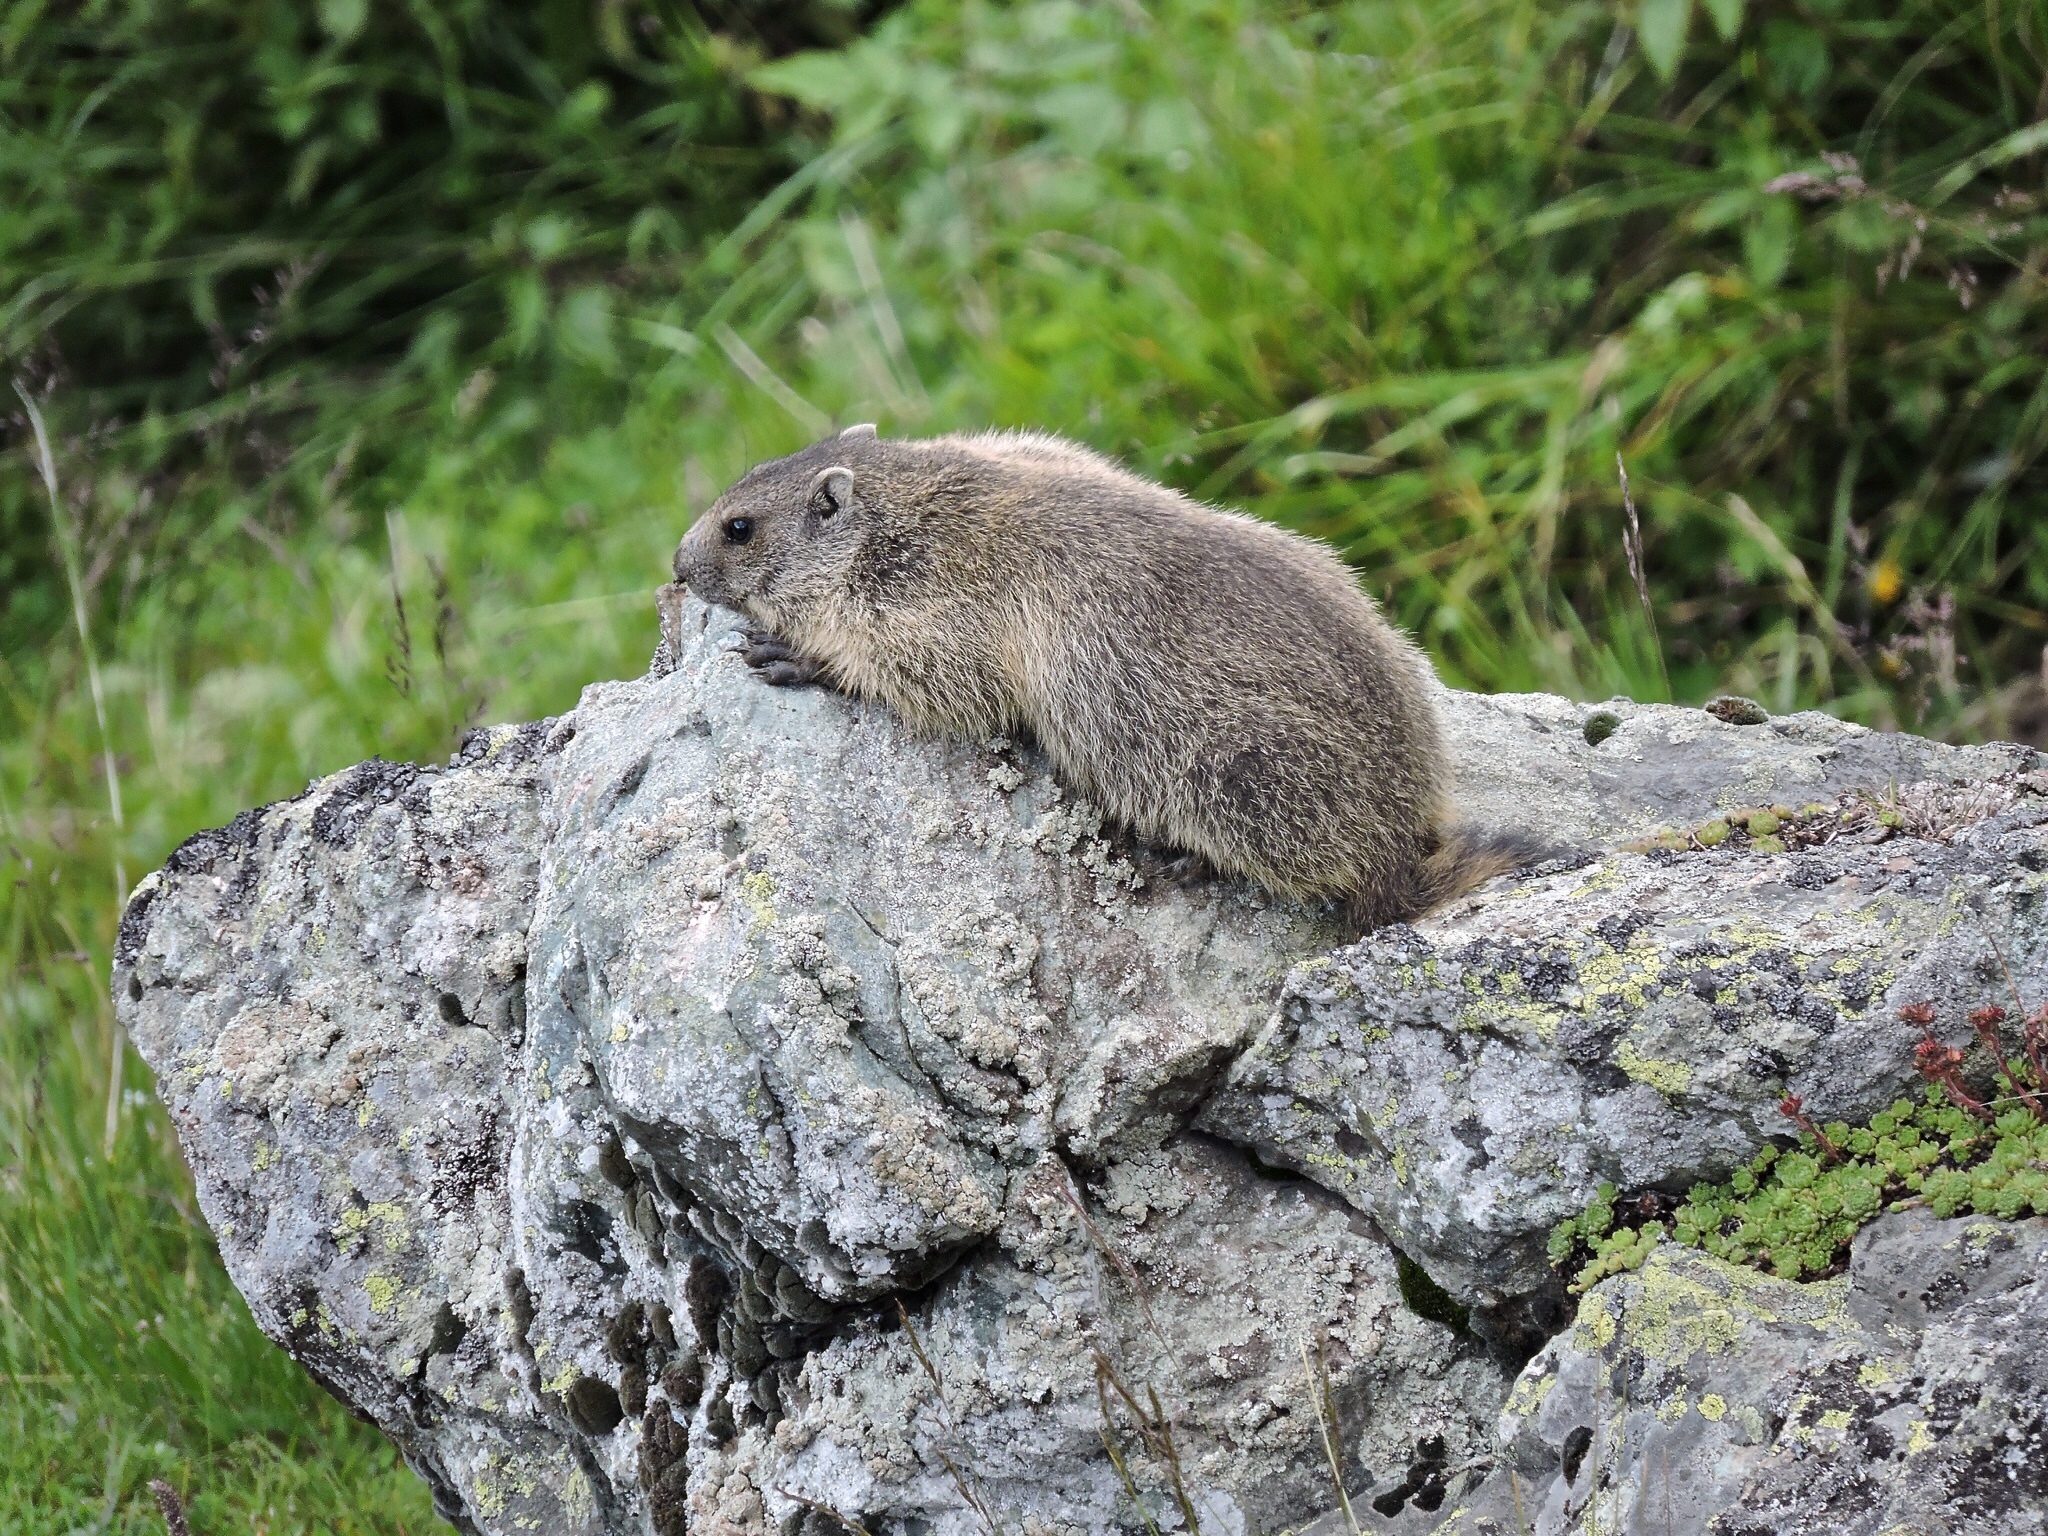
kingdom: Animalia
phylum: Chordata
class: Mammalia
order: Rodentia
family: Sciuridae
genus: Marmota
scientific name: Marmota marmota
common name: Alpine marmot
